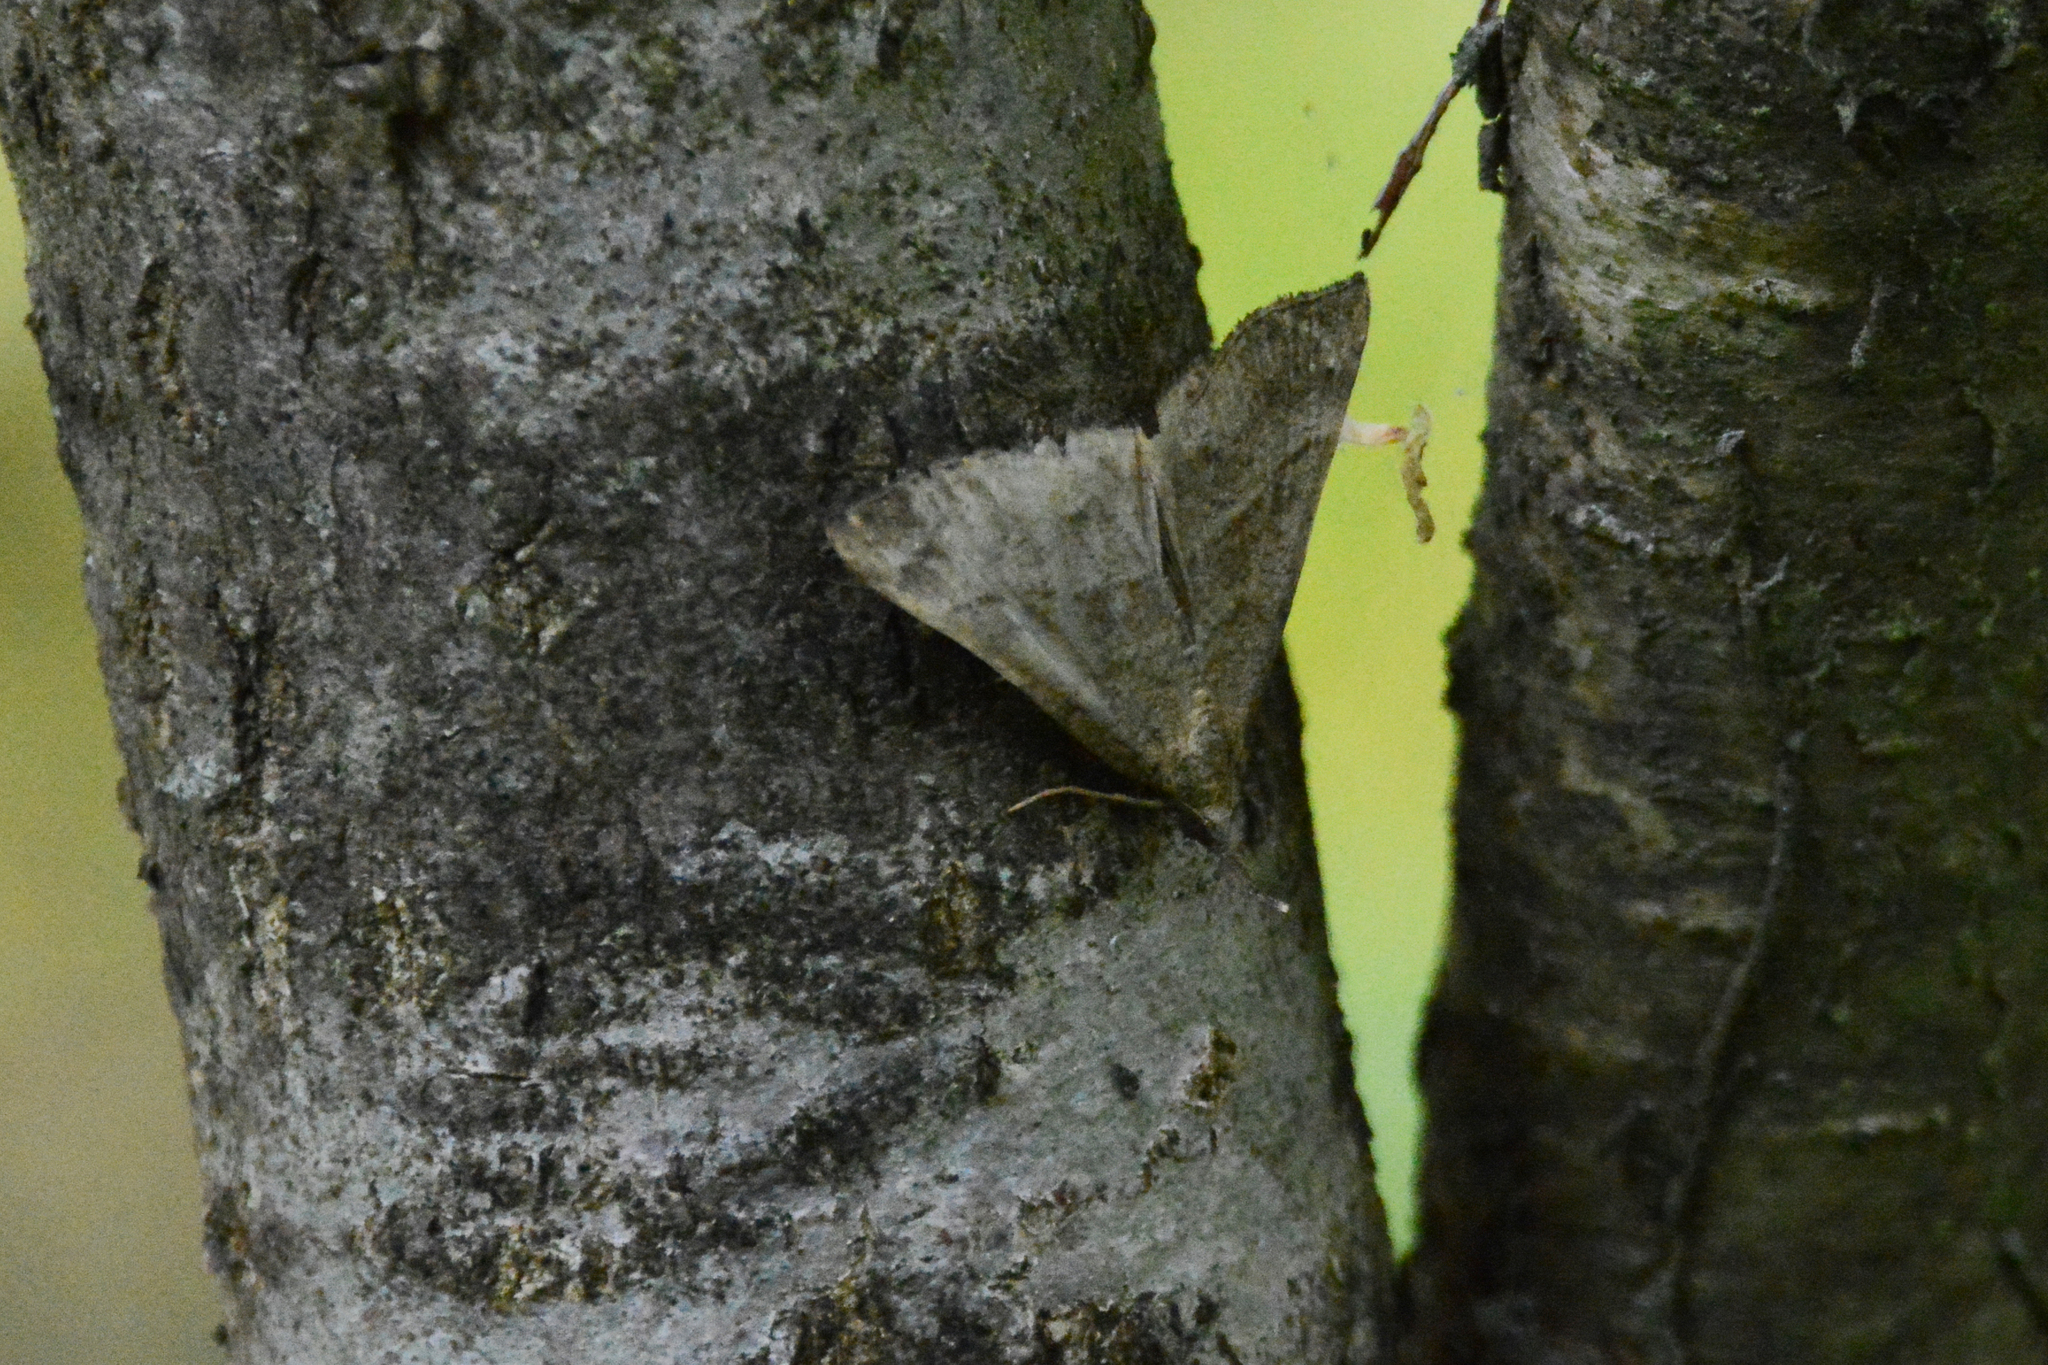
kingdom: Animalia
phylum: Arthropoda
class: Insecta
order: Lepidoptera
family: Erebidae
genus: Hypena
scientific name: Hypena proboscidalis
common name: Snout
